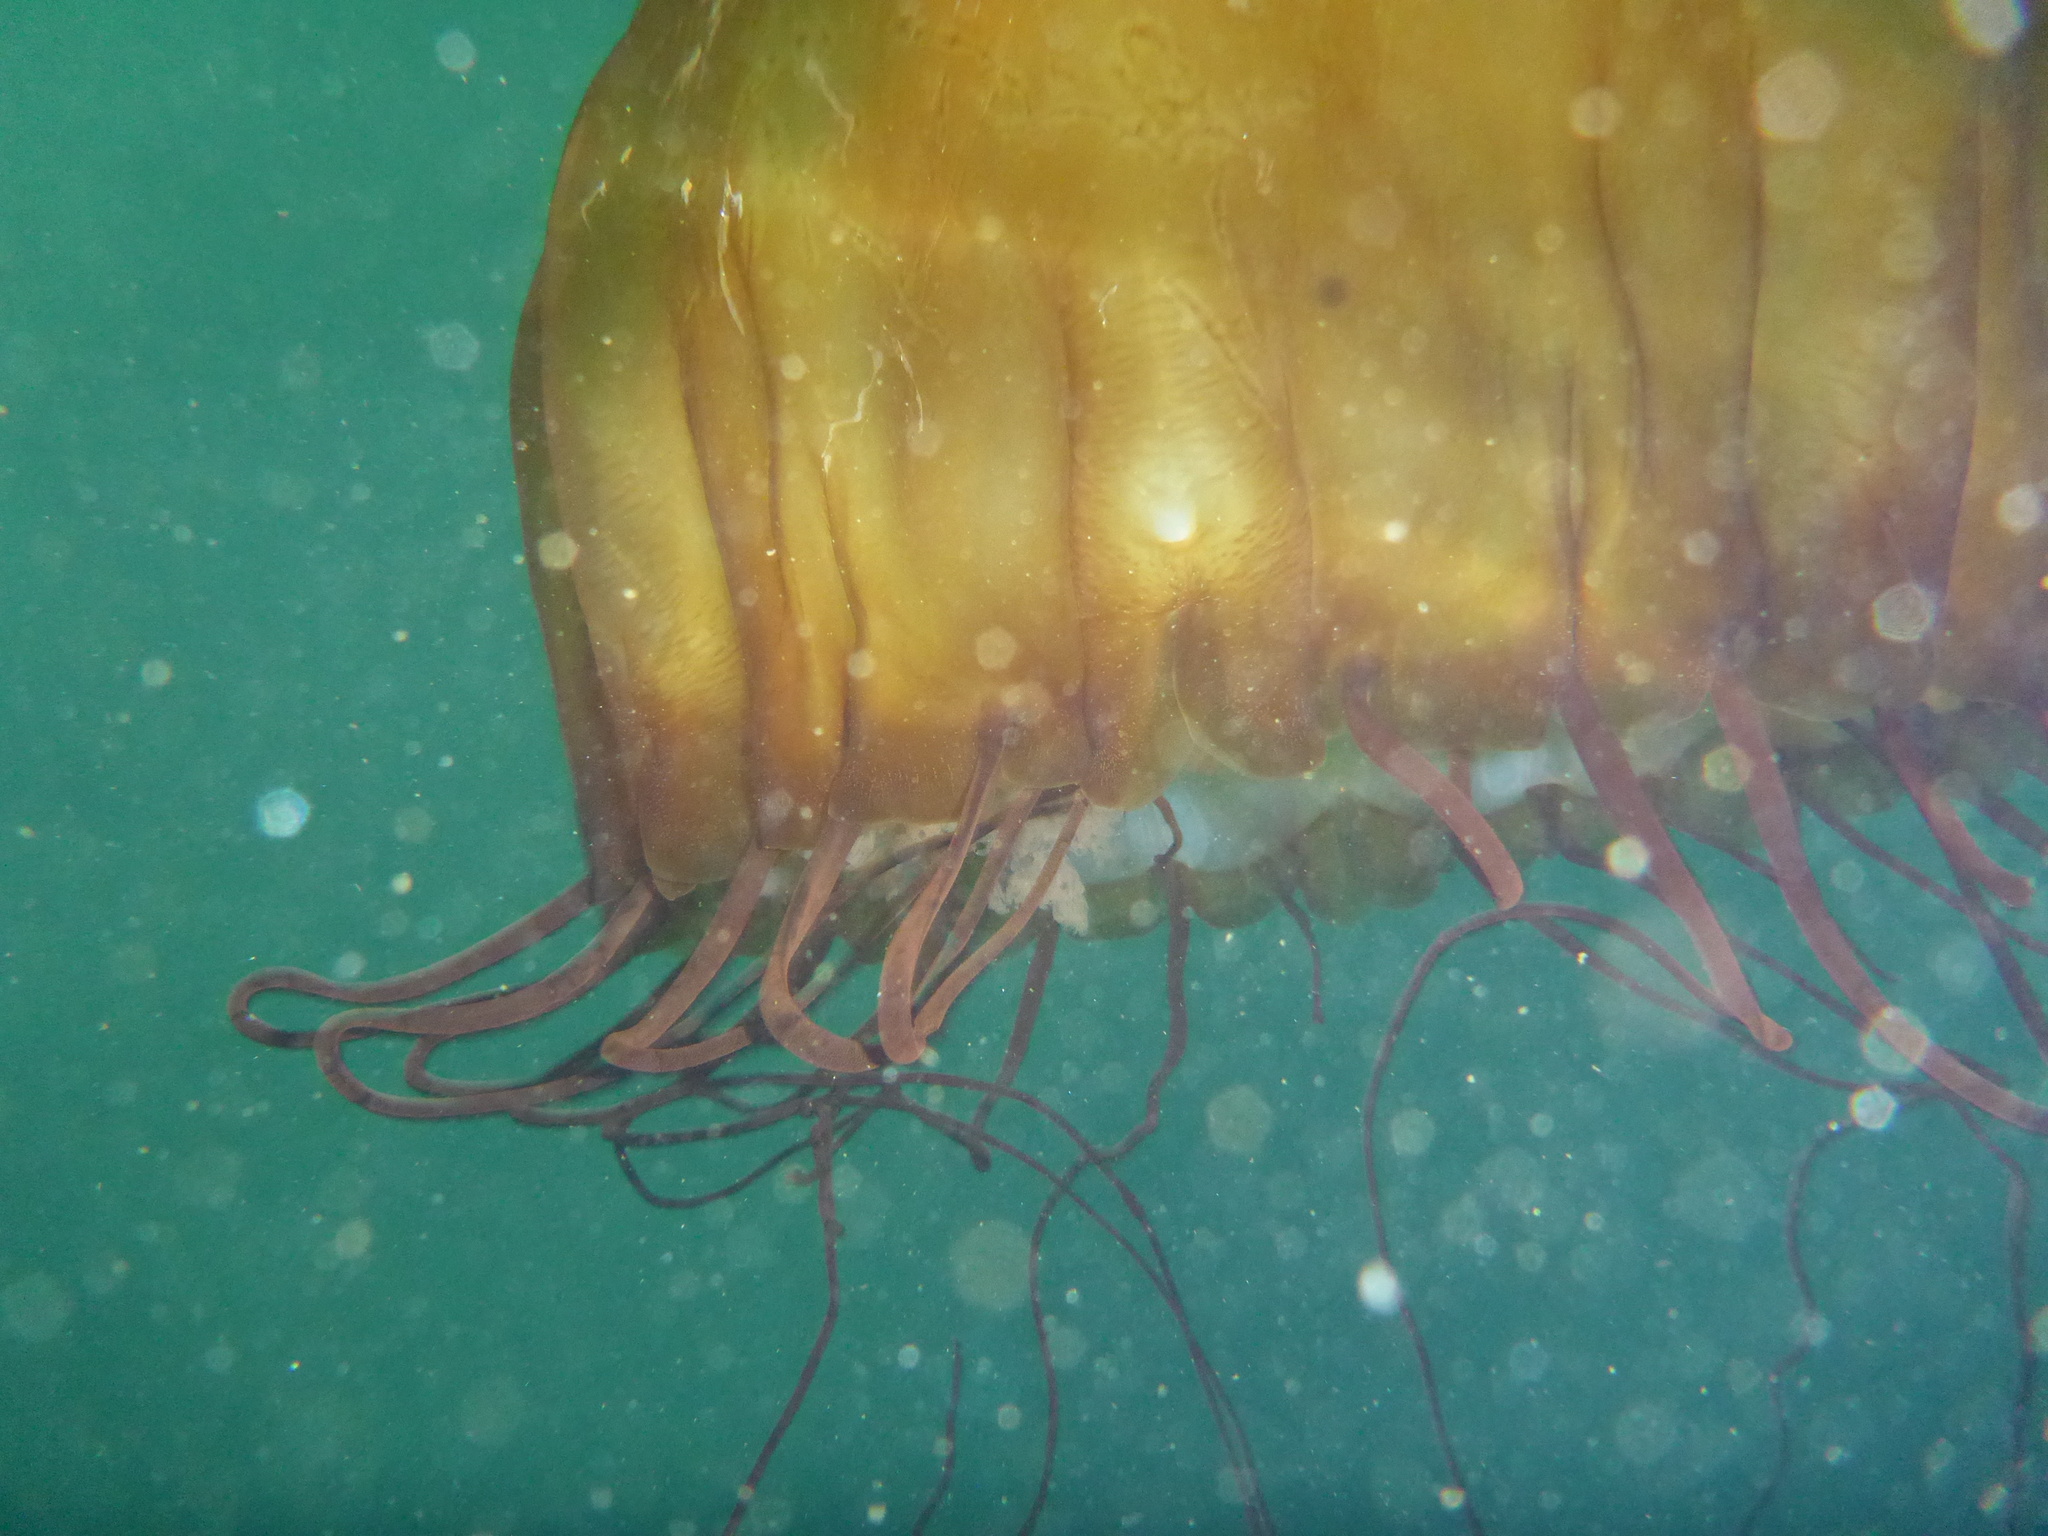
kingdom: Animalia
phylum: Cnidaria
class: Scyphozoa
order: Semaeostomeae
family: Pelagiidae
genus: Chrysaora
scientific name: Chrysaora fuscescens
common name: Sea nettle
